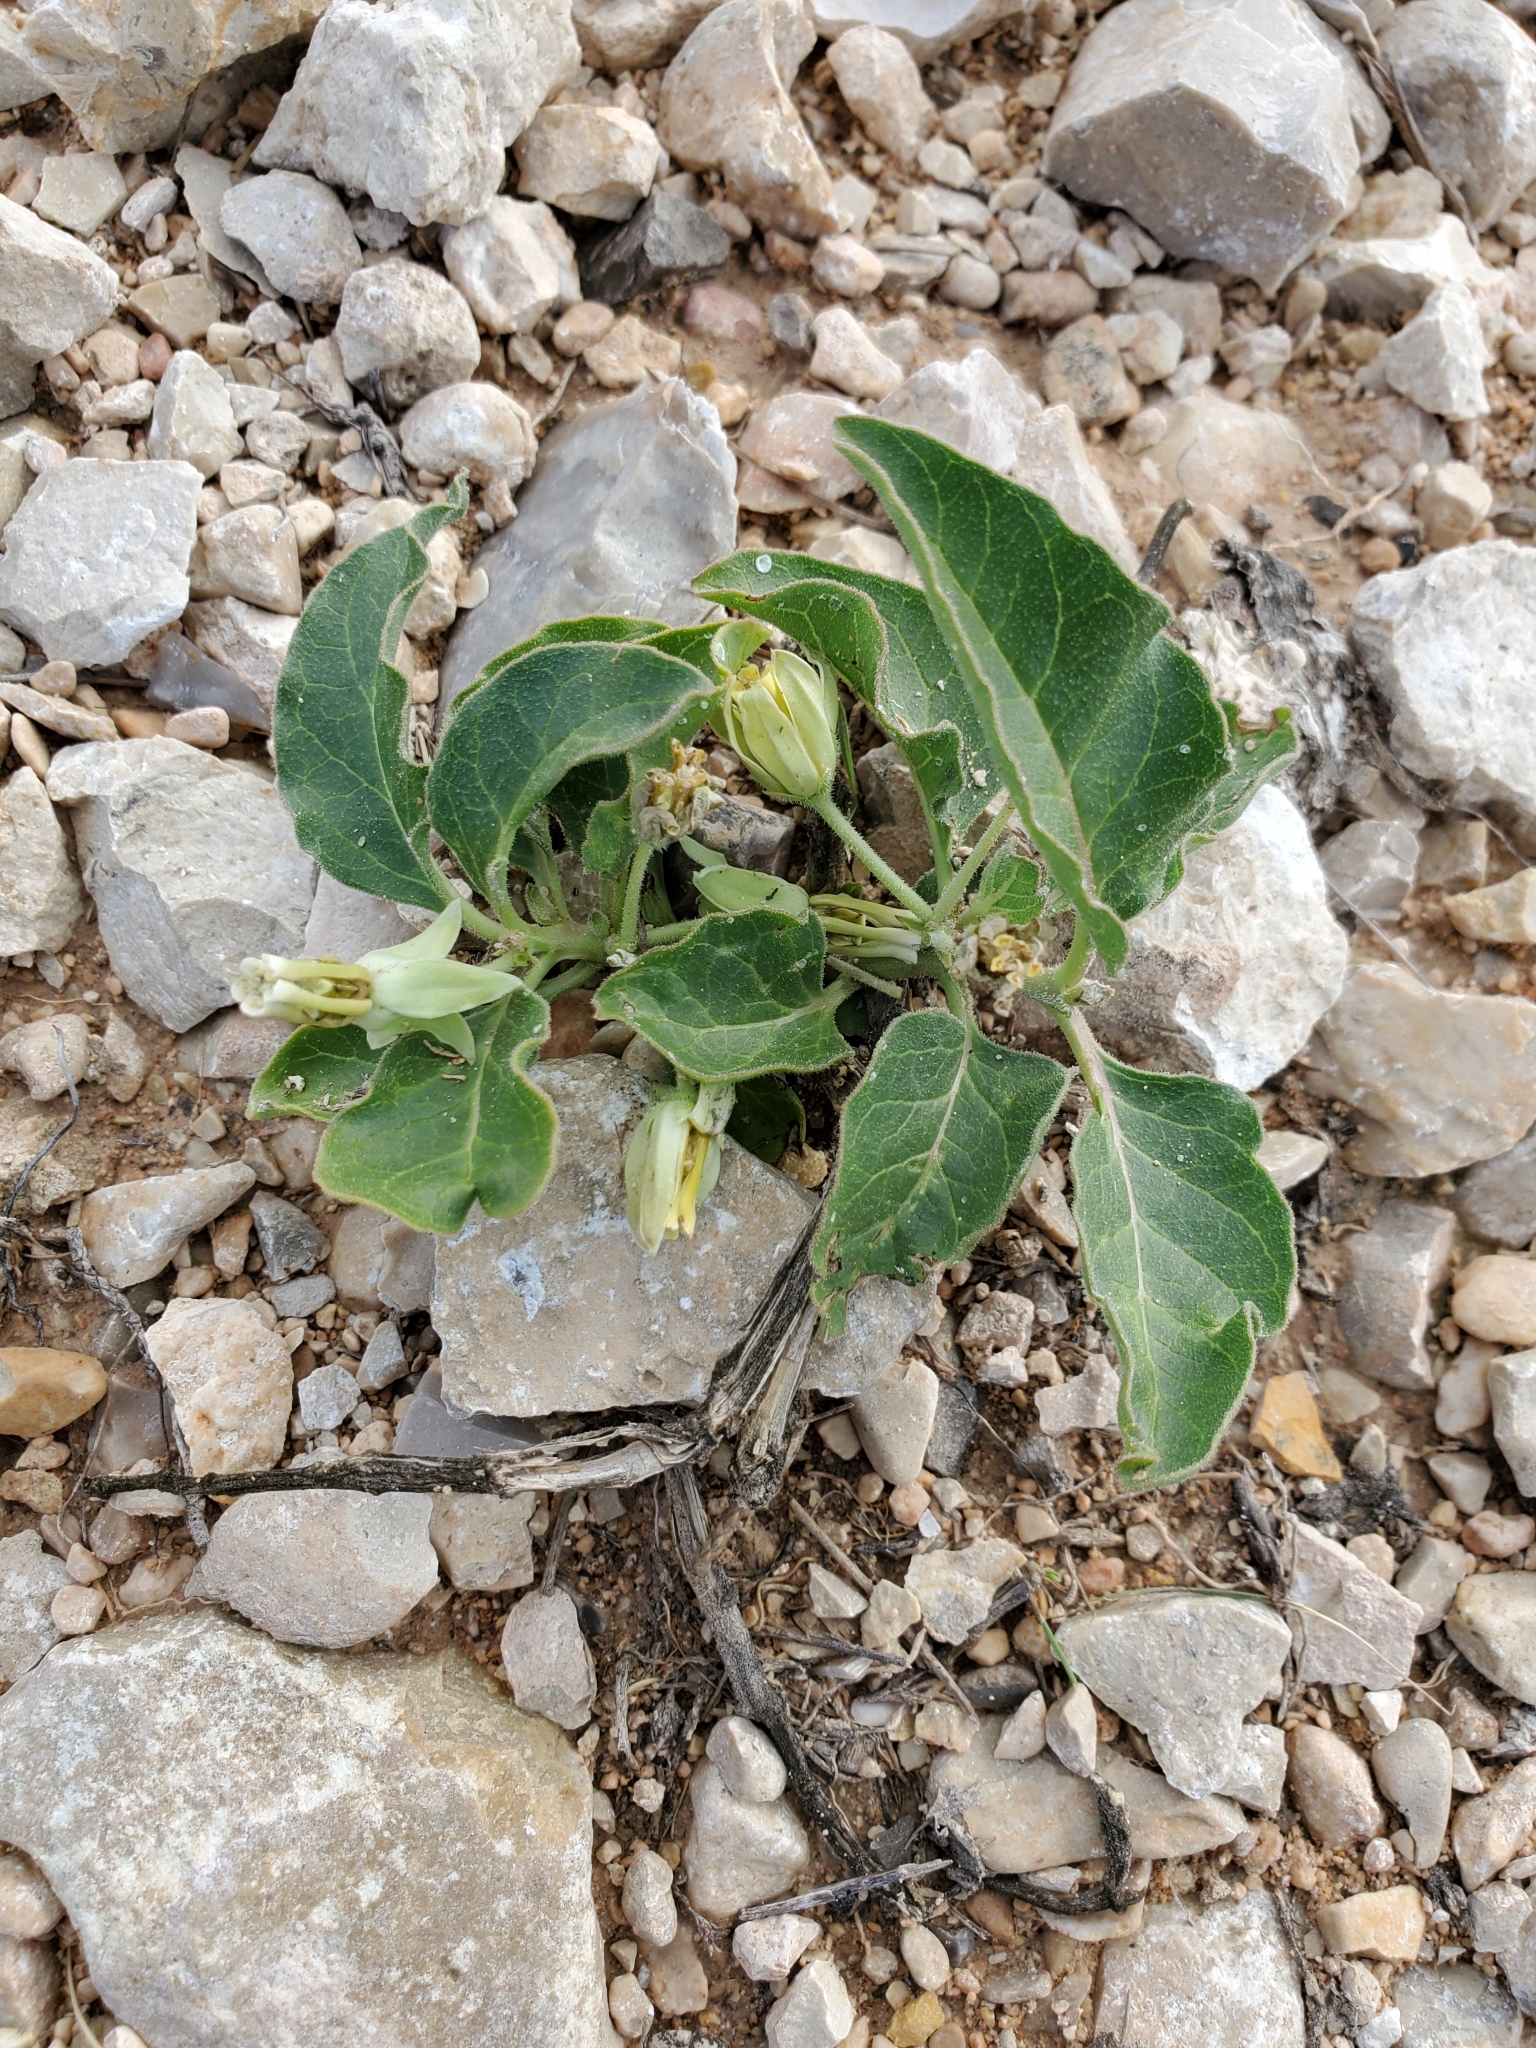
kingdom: Plantae
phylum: Tracheophyta
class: Magnoliopsida
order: Gentianales
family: Apocynaceae
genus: Asclepias
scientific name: Asclepias oenotheroides
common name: Zizotes milkweed
